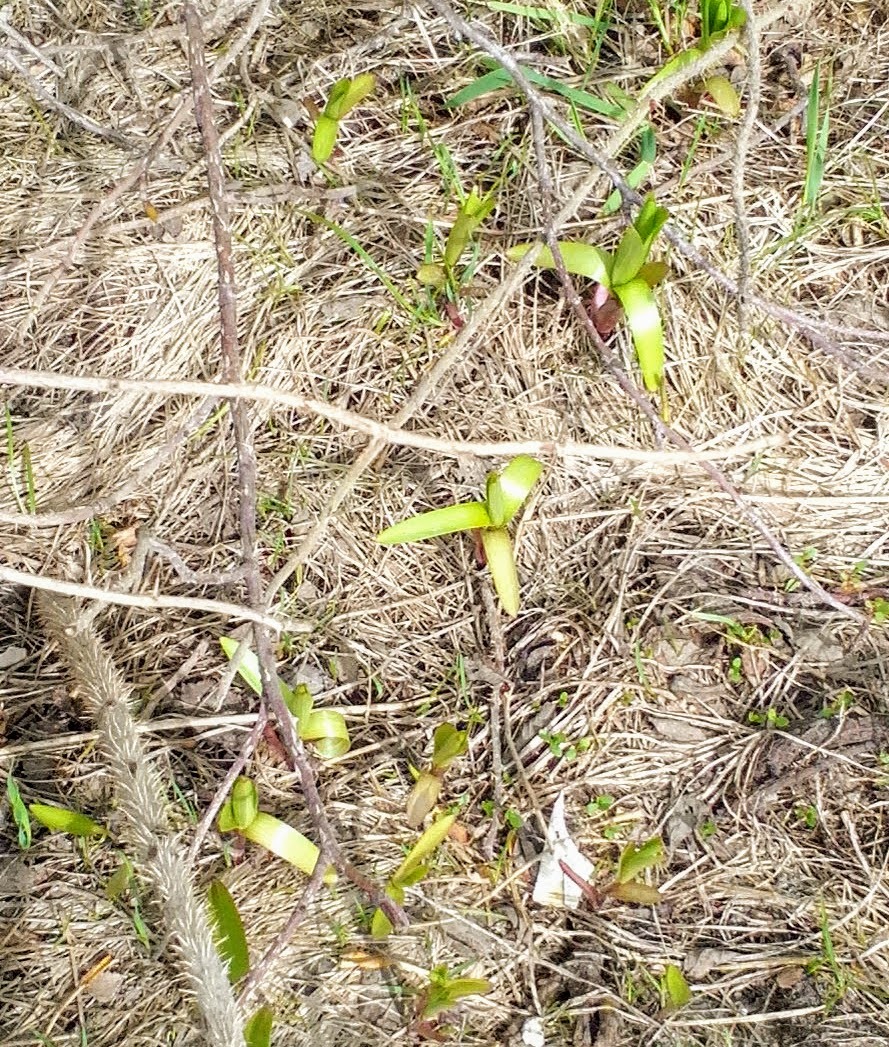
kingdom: Plantae
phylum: Tracheophyta
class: Liliopsida
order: Liliales
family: Liliaceae
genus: Lilium
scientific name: Lilium martagon
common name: Martagon lily
